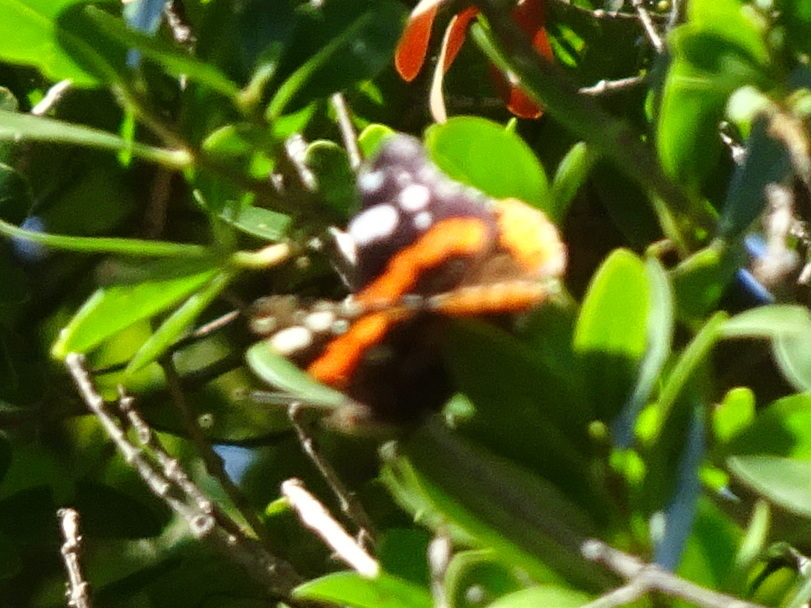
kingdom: Animalia
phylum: Arthropoda
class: Insecta
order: Lepidoptera
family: Nymphalidae
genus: Vanessa
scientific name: Vanessa atalanta
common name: Red admiral
